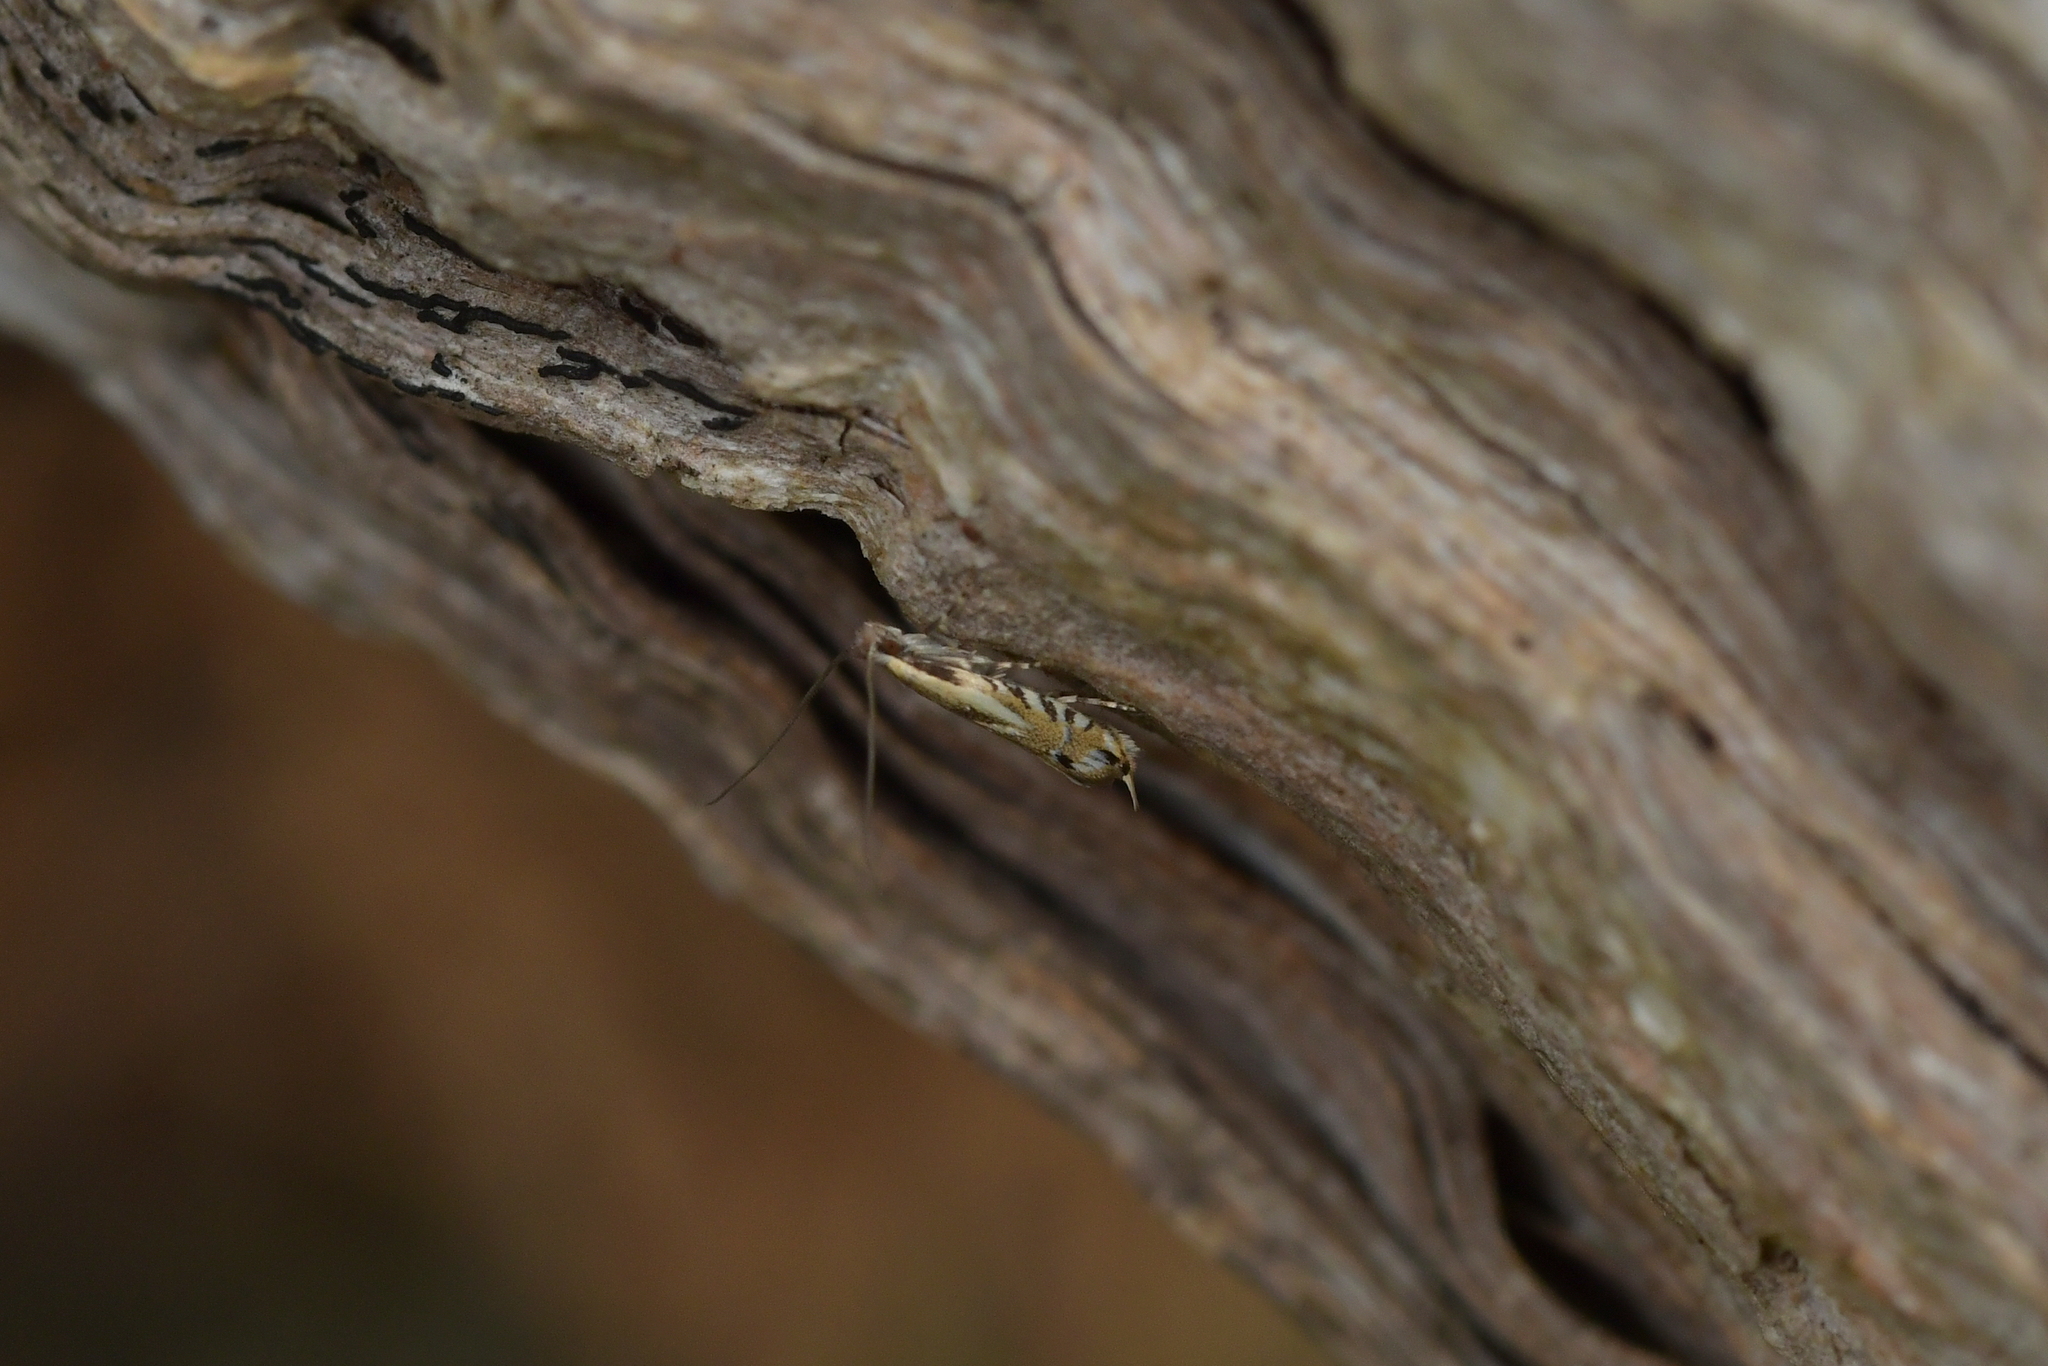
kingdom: Animalia
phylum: Arthropoda
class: Insecta
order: Lepidoptera
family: Tineidae
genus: Erechthias
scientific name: Erechthias decoranda
